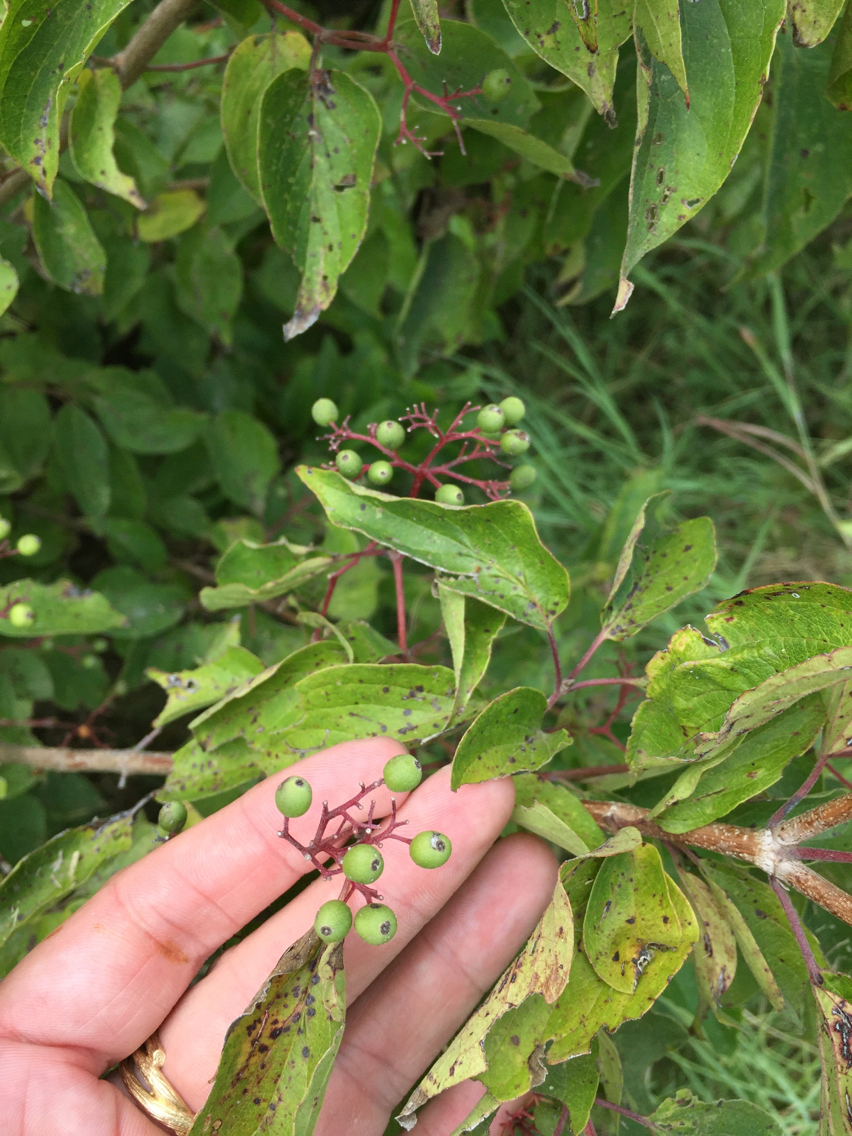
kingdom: Plantae
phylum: Tracheophyta
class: Magnoliopsida
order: Cornales
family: Cornaceae
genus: Cornus
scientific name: Cornus drummondii
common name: Rough-leaf dogwood
